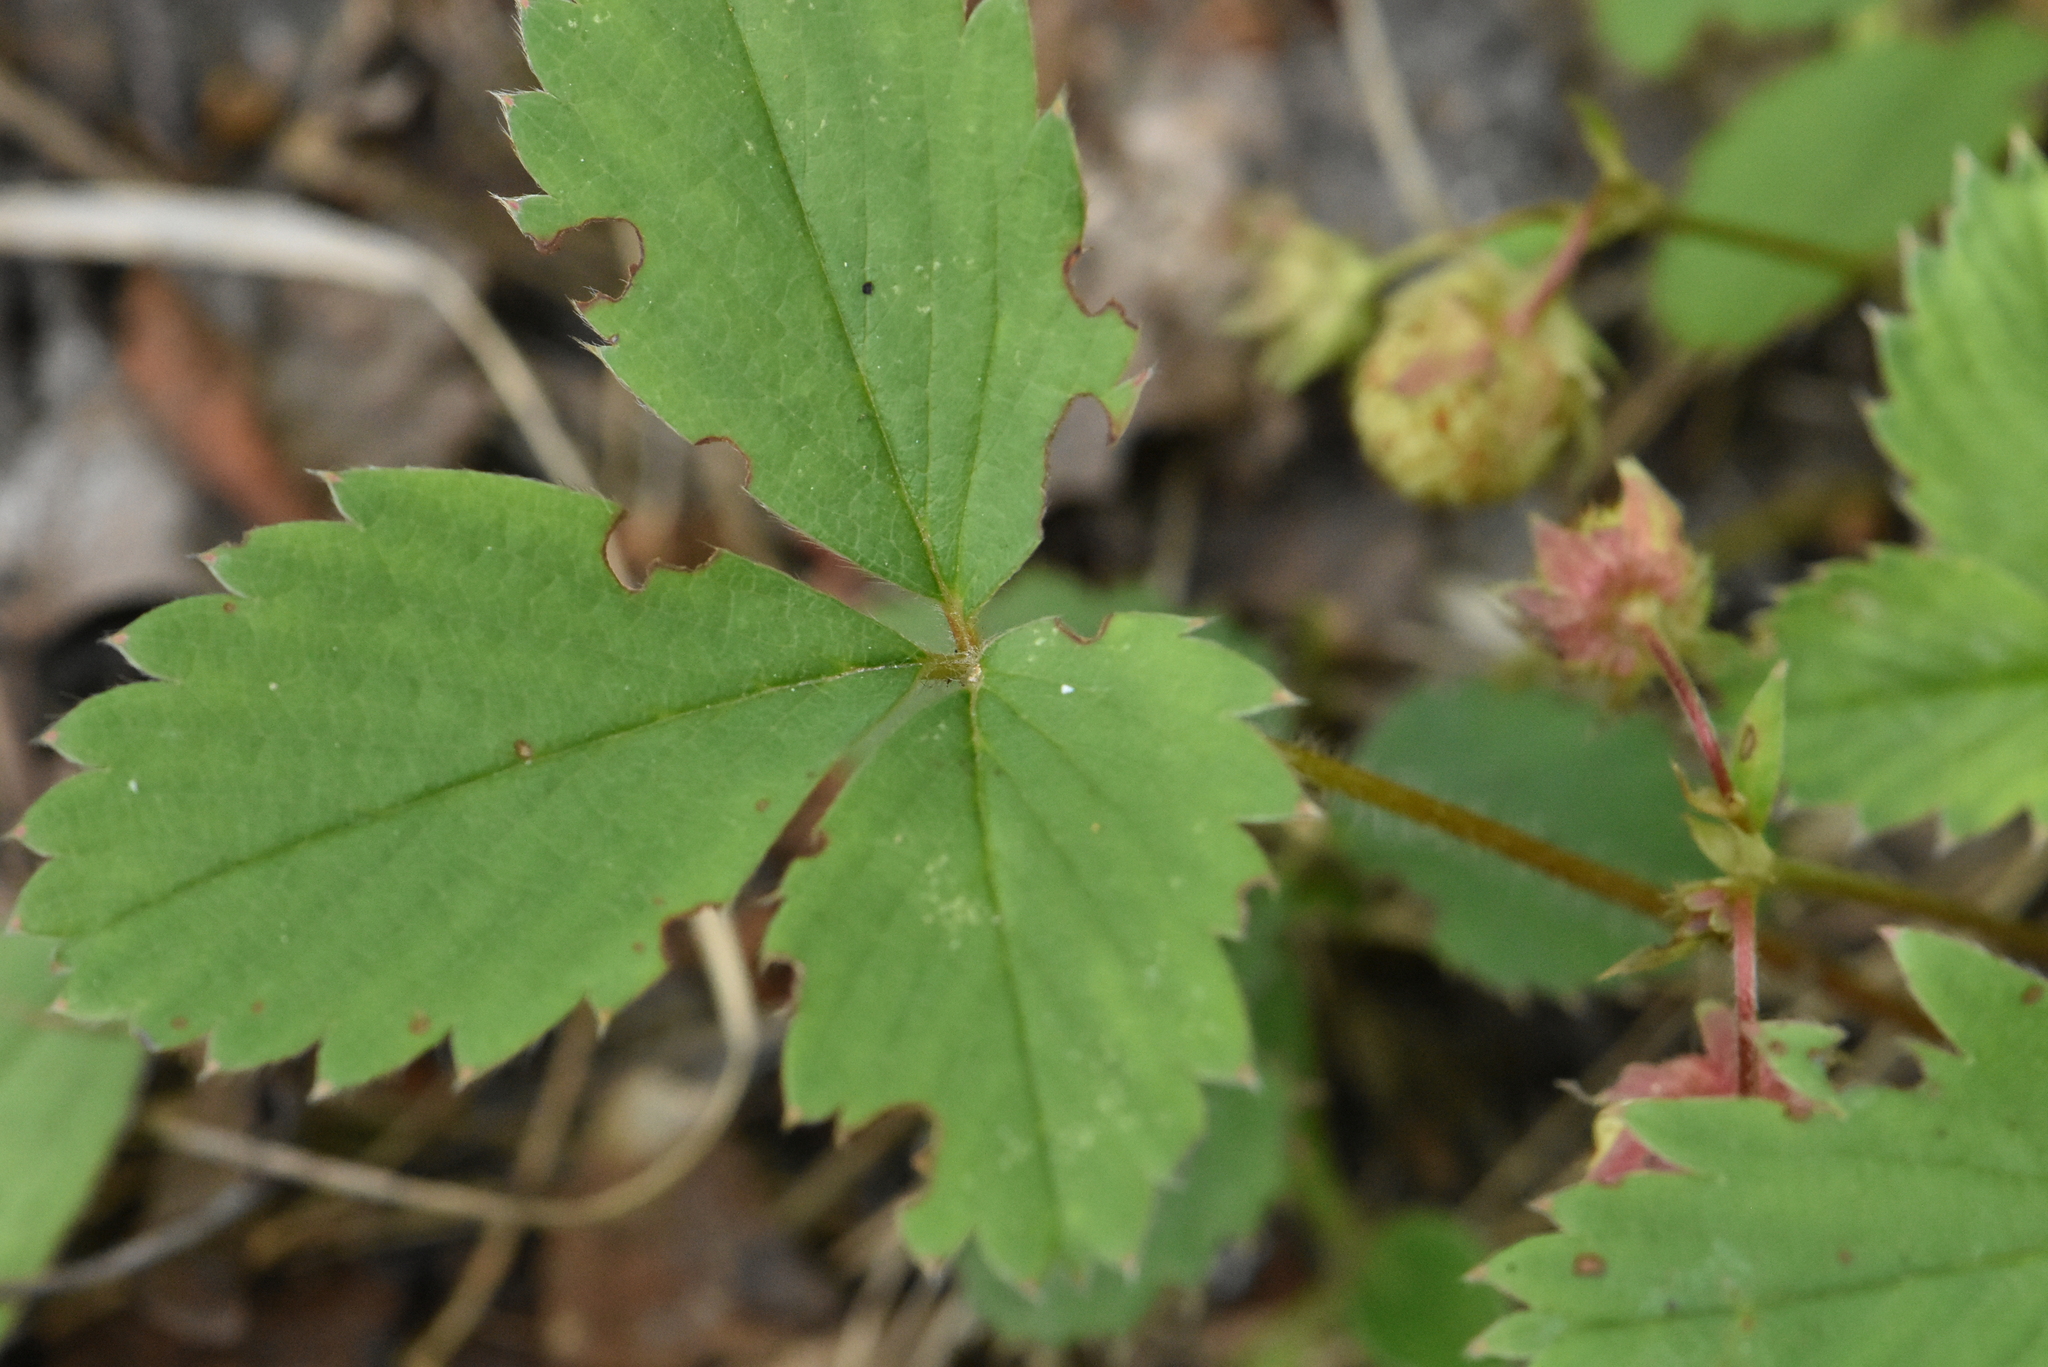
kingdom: Plantae
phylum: Tracheophyta
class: Magnoliopsida
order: Rosales
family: Rosaceae
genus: Fragaria
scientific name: Fragaria viridis
